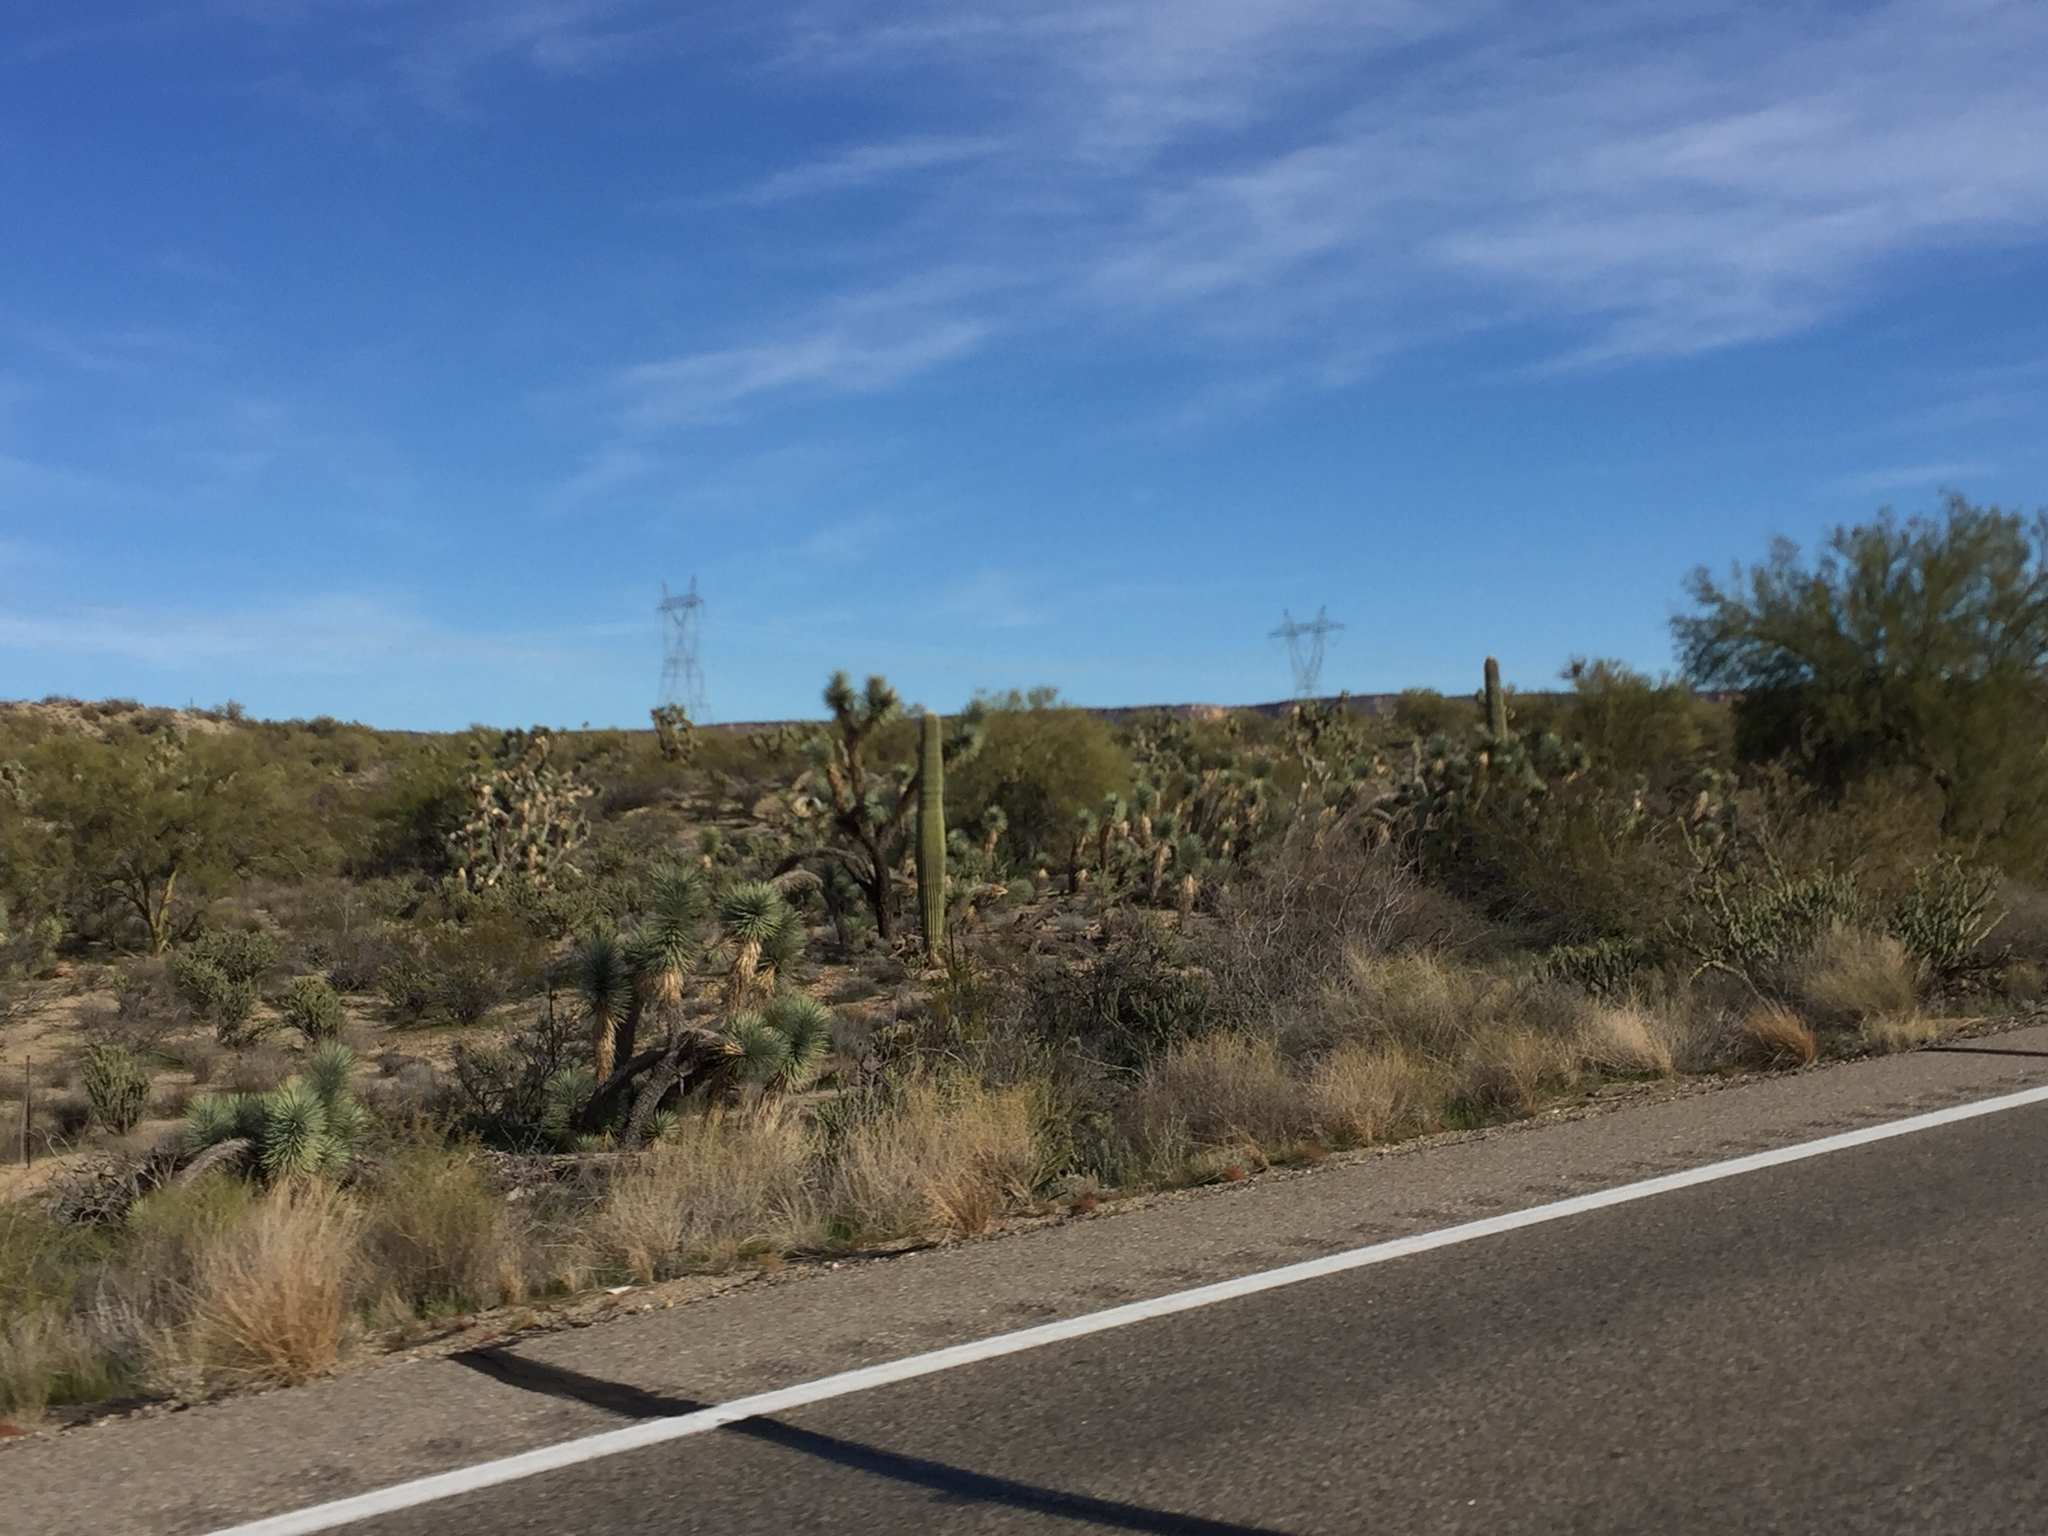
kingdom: Plantae
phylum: Tracheophyta
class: Liliopsida
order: Asparagales
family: Asparagaceae
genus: Yucca
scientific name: Yucca brevifolia
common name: Joshua tree
